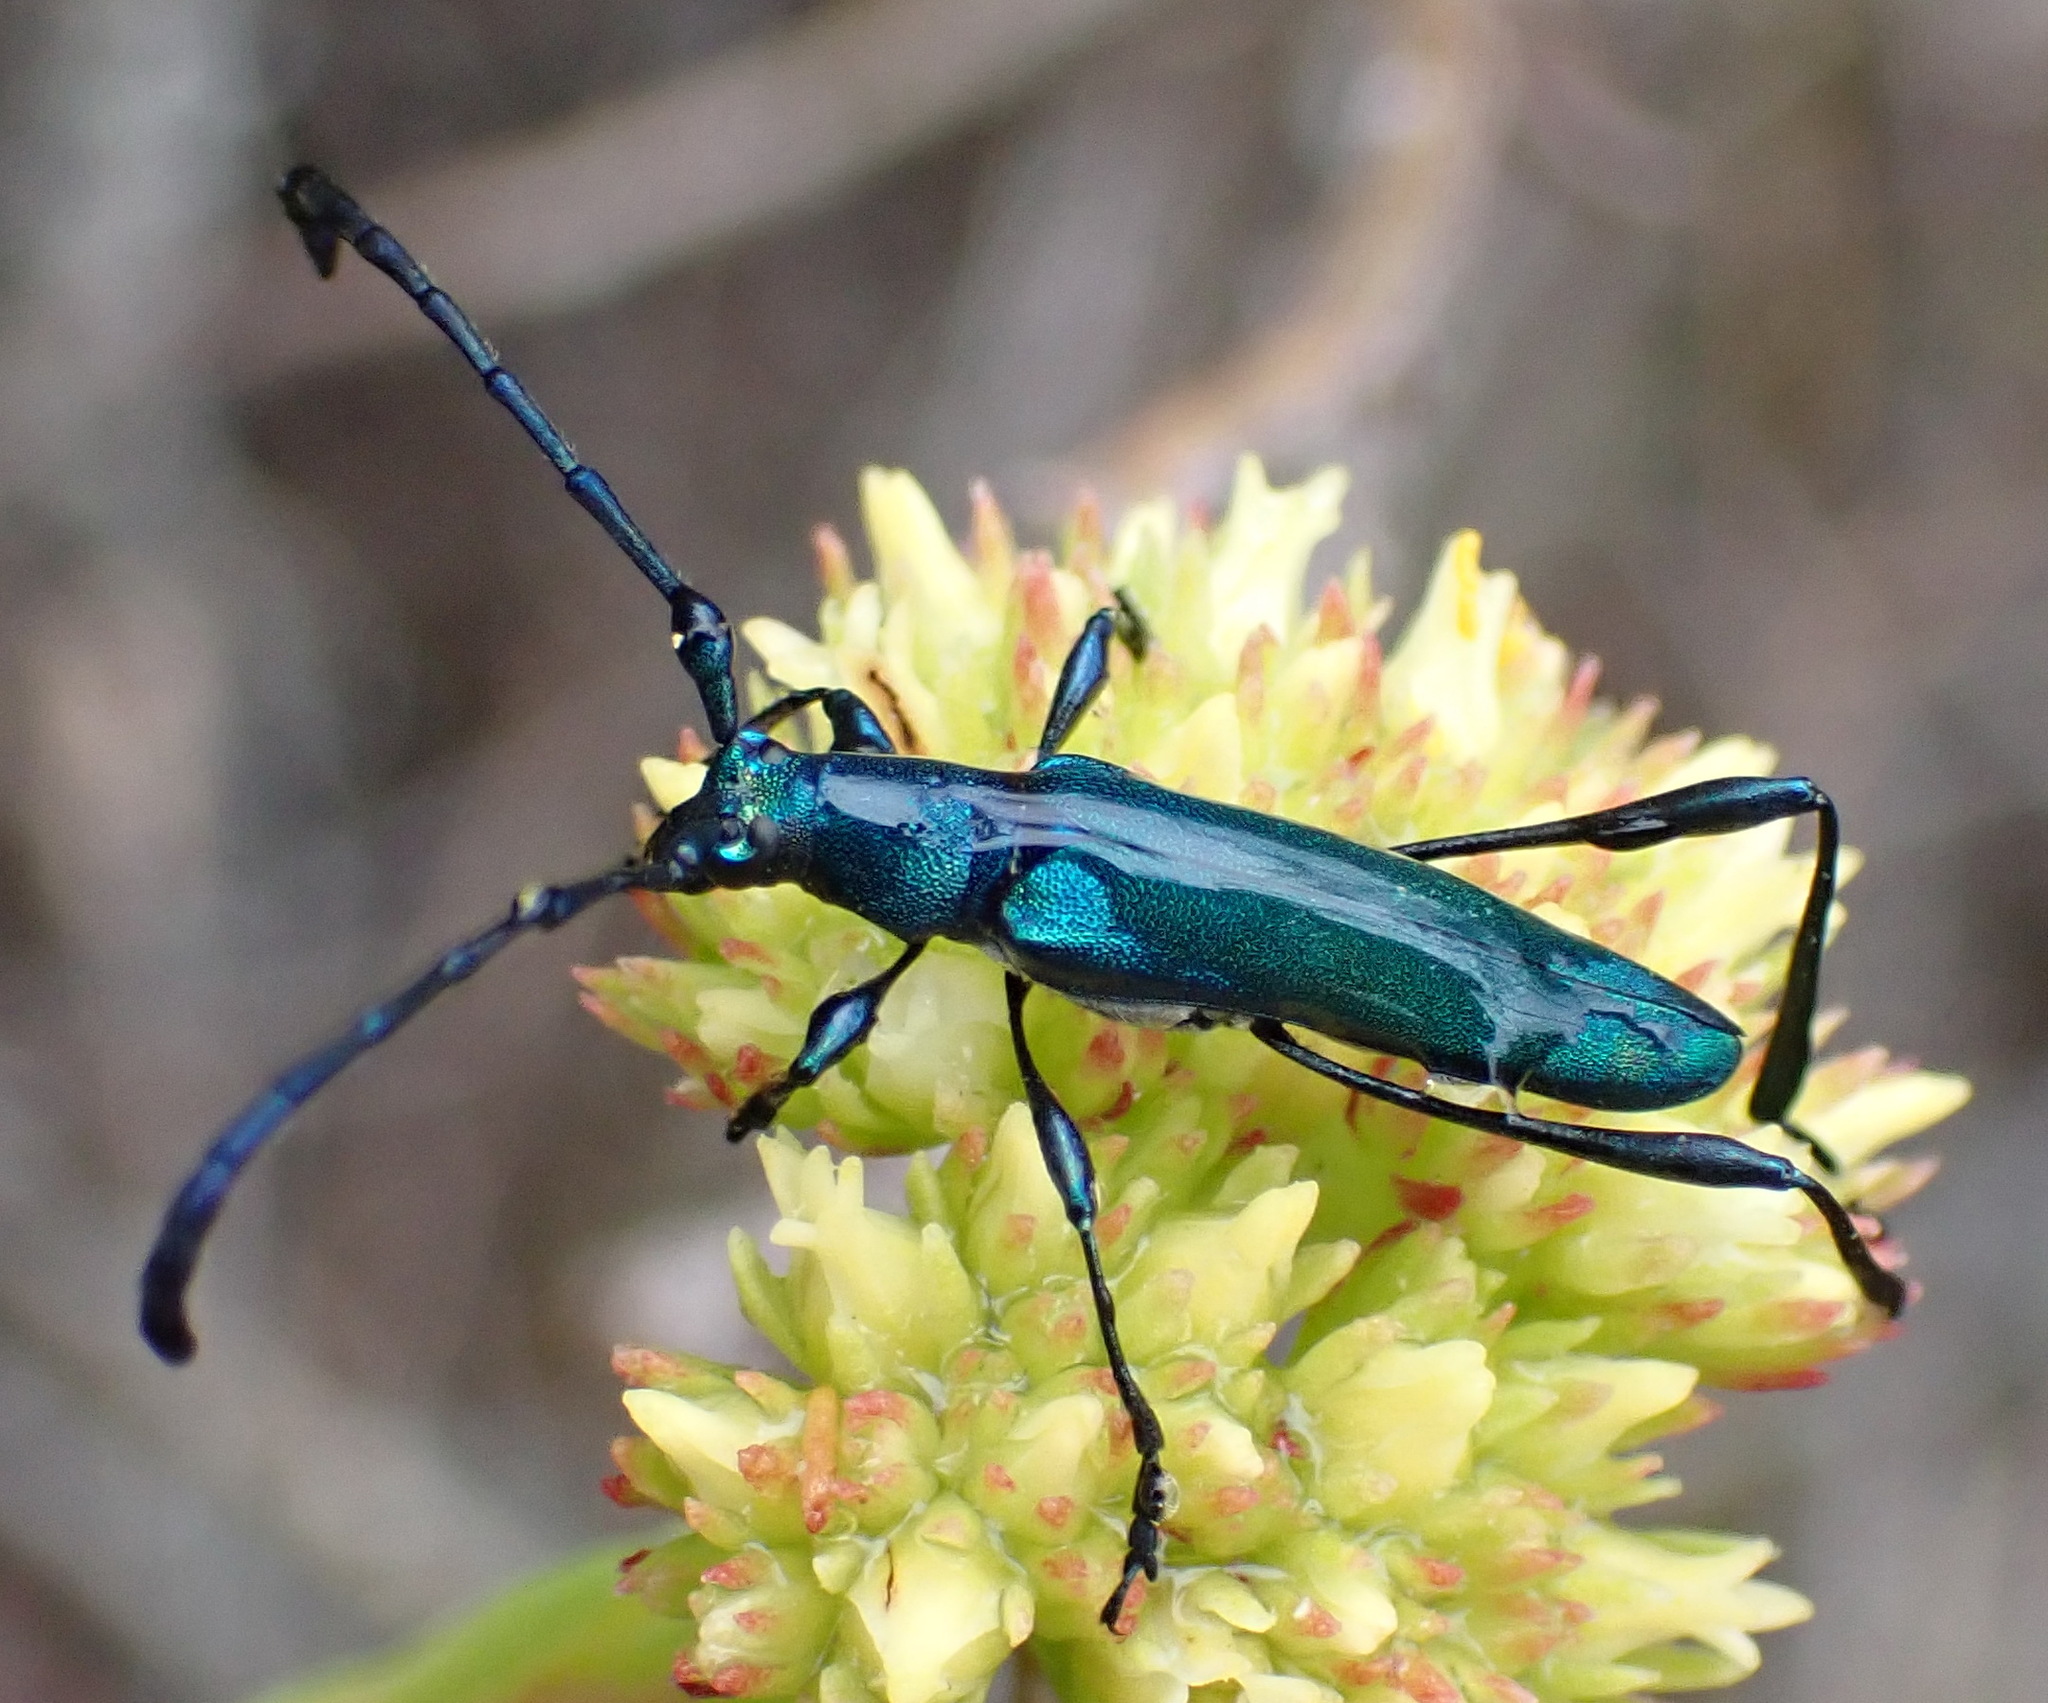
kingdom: Animalia
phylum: Arthropoda
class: Insecta
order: Coleoptera
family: Cerambycidae
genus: Hypocrites
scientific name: Hypocrites
